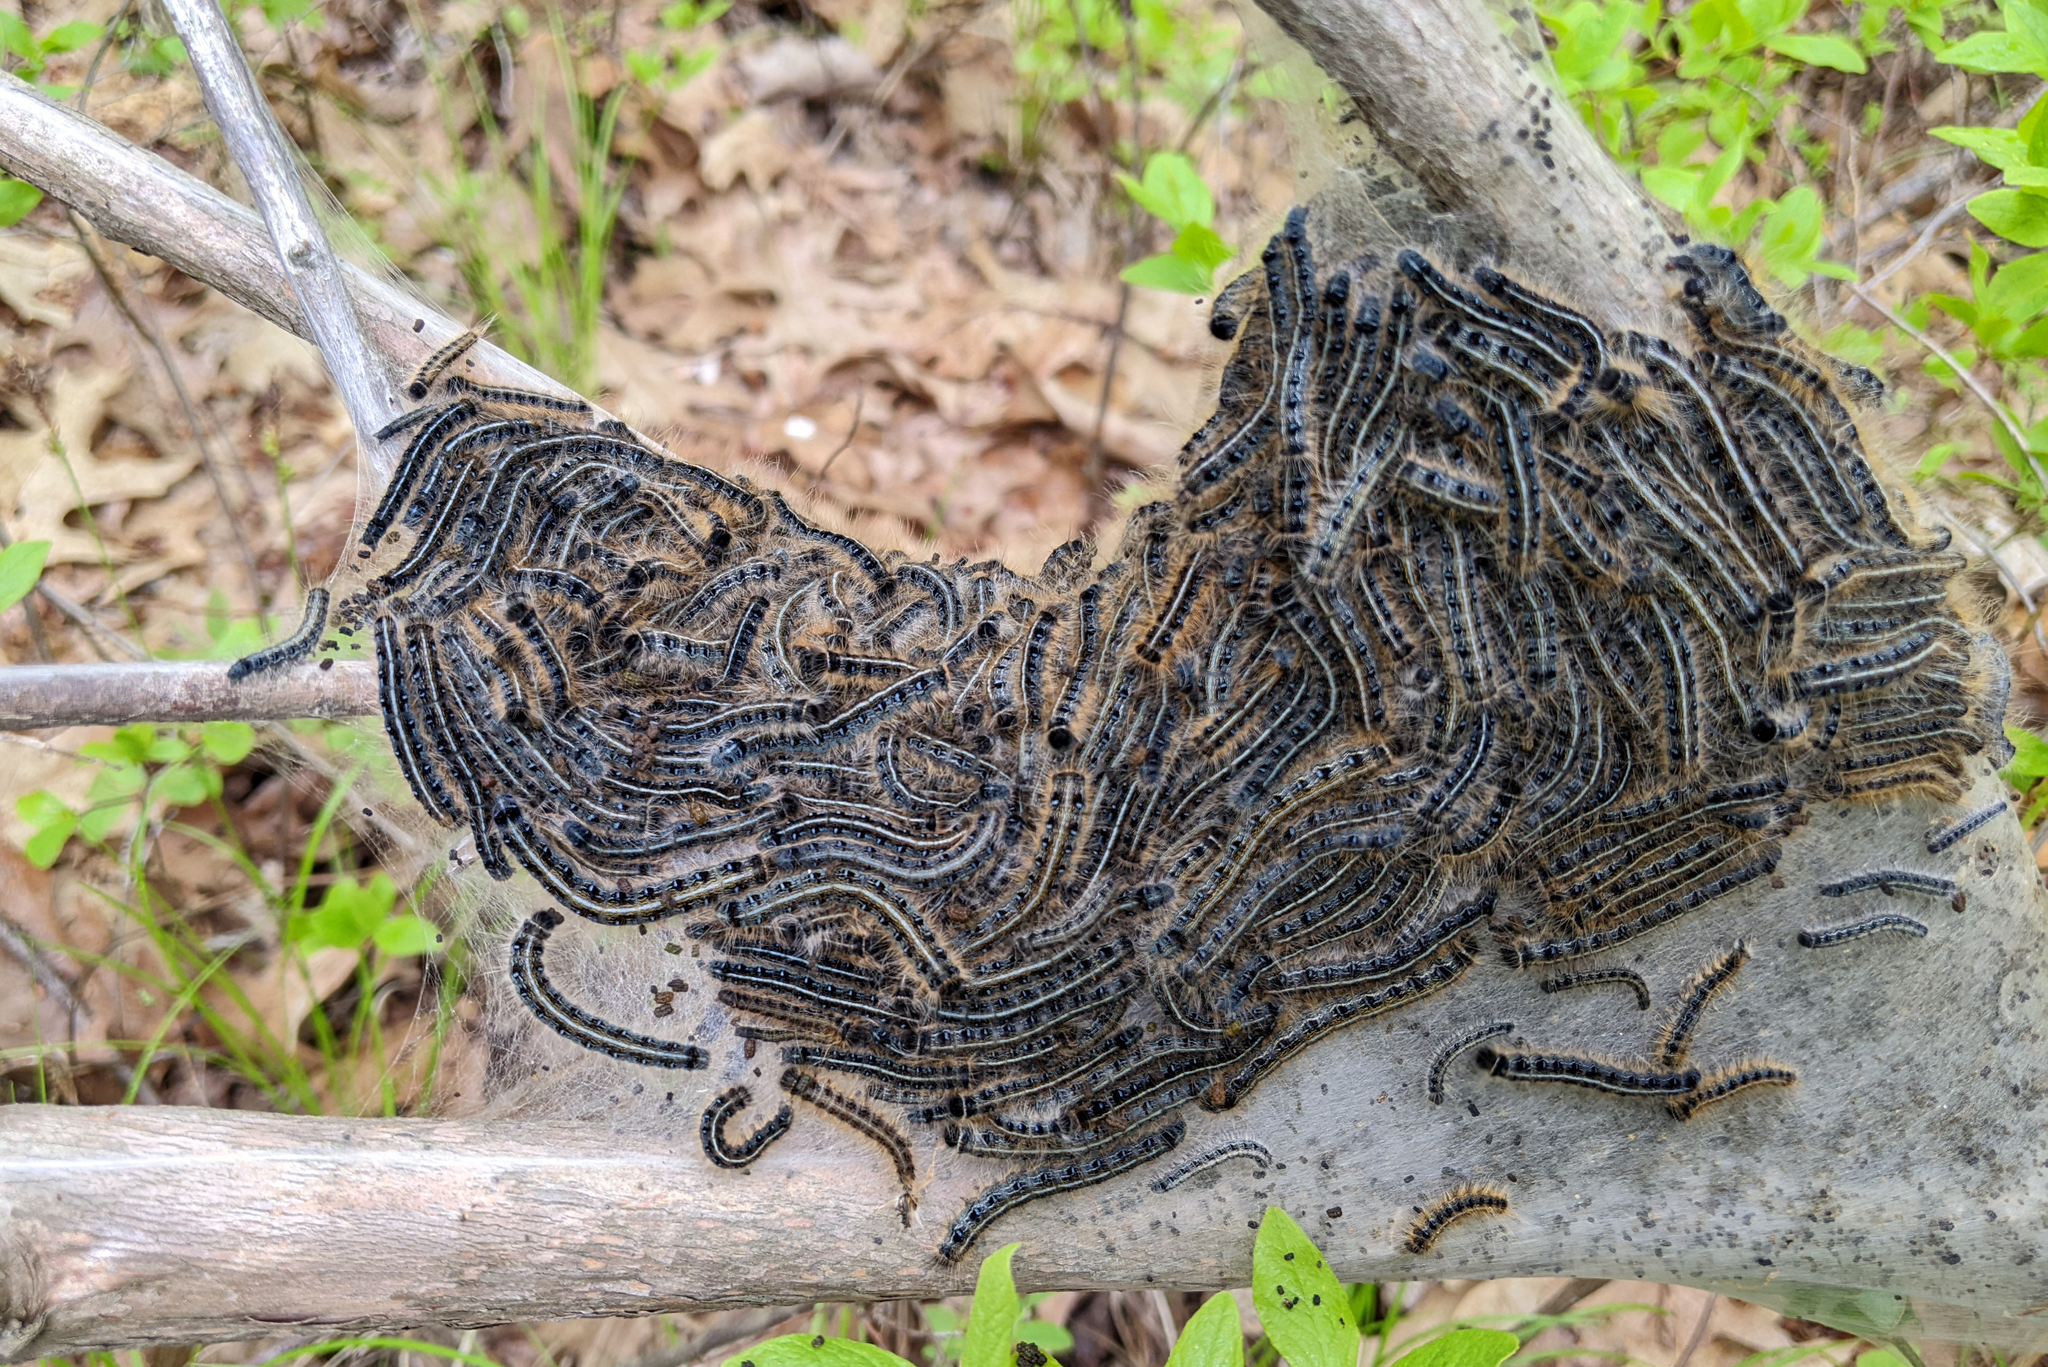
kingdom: Animalia
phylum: Arthropoda
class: Insecta
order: Lepidoptera
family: Lasiocampidae
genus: Malacosoma
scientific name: Malacosoma americana
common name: Eastern tent caterpillar moth
